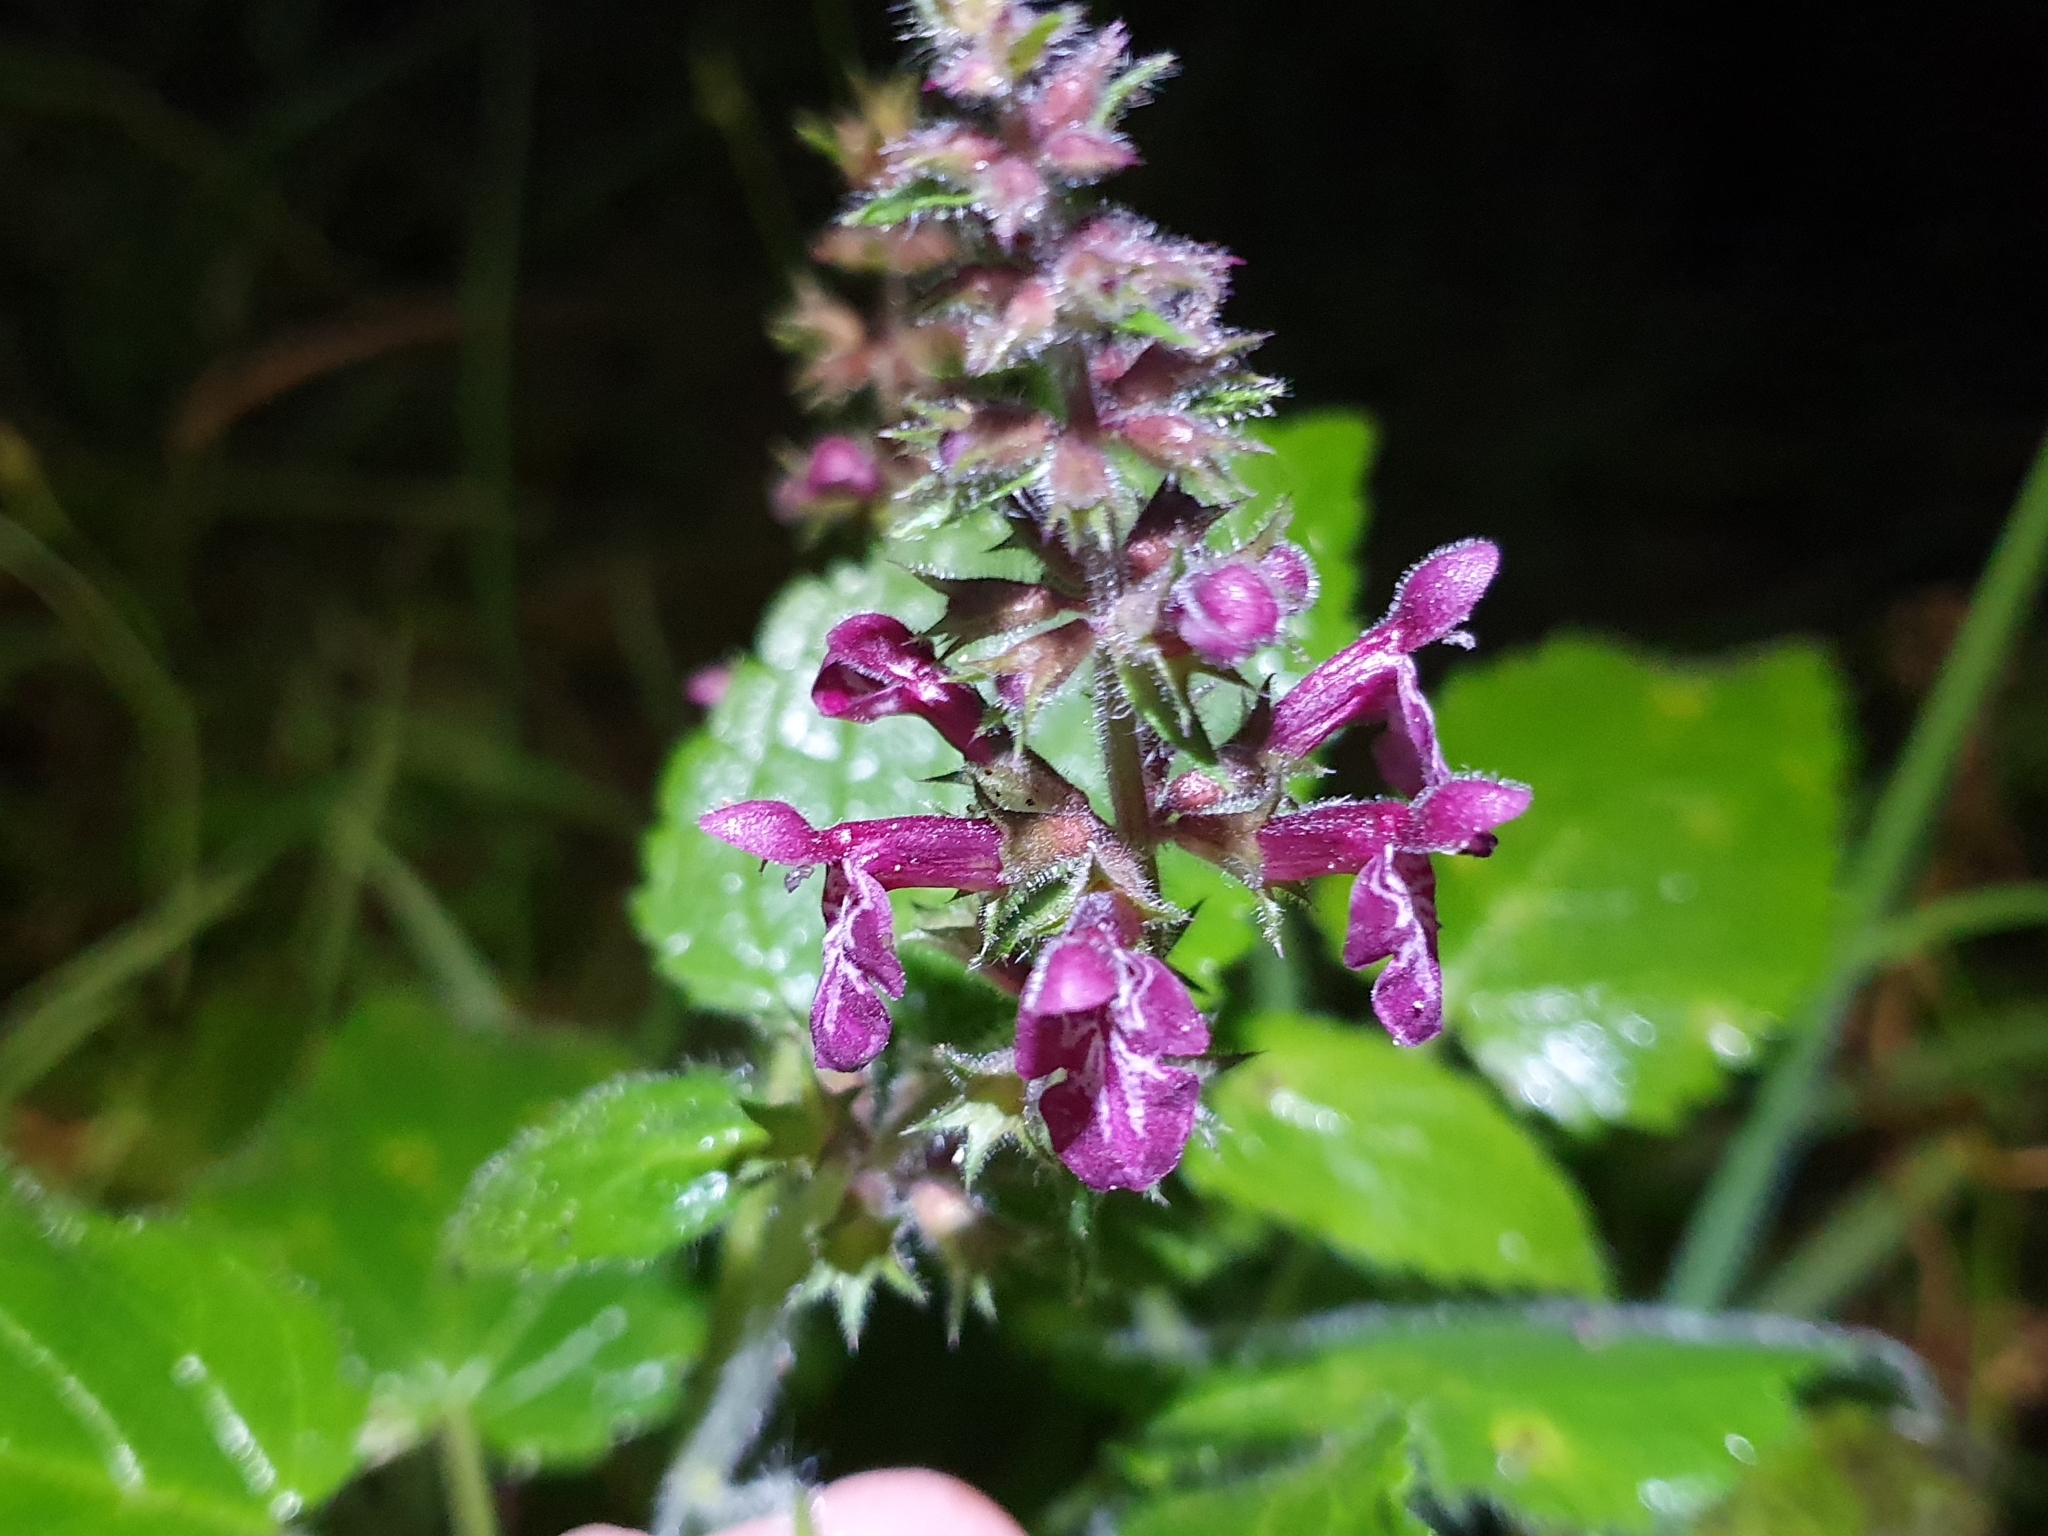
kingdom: Plantae
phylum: Tracheophyta
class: Magnoliopsida
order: Lamiales
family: Lamiaceae
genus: Stachys
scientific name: Stachys sylvatica
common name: Hedge woundwort
